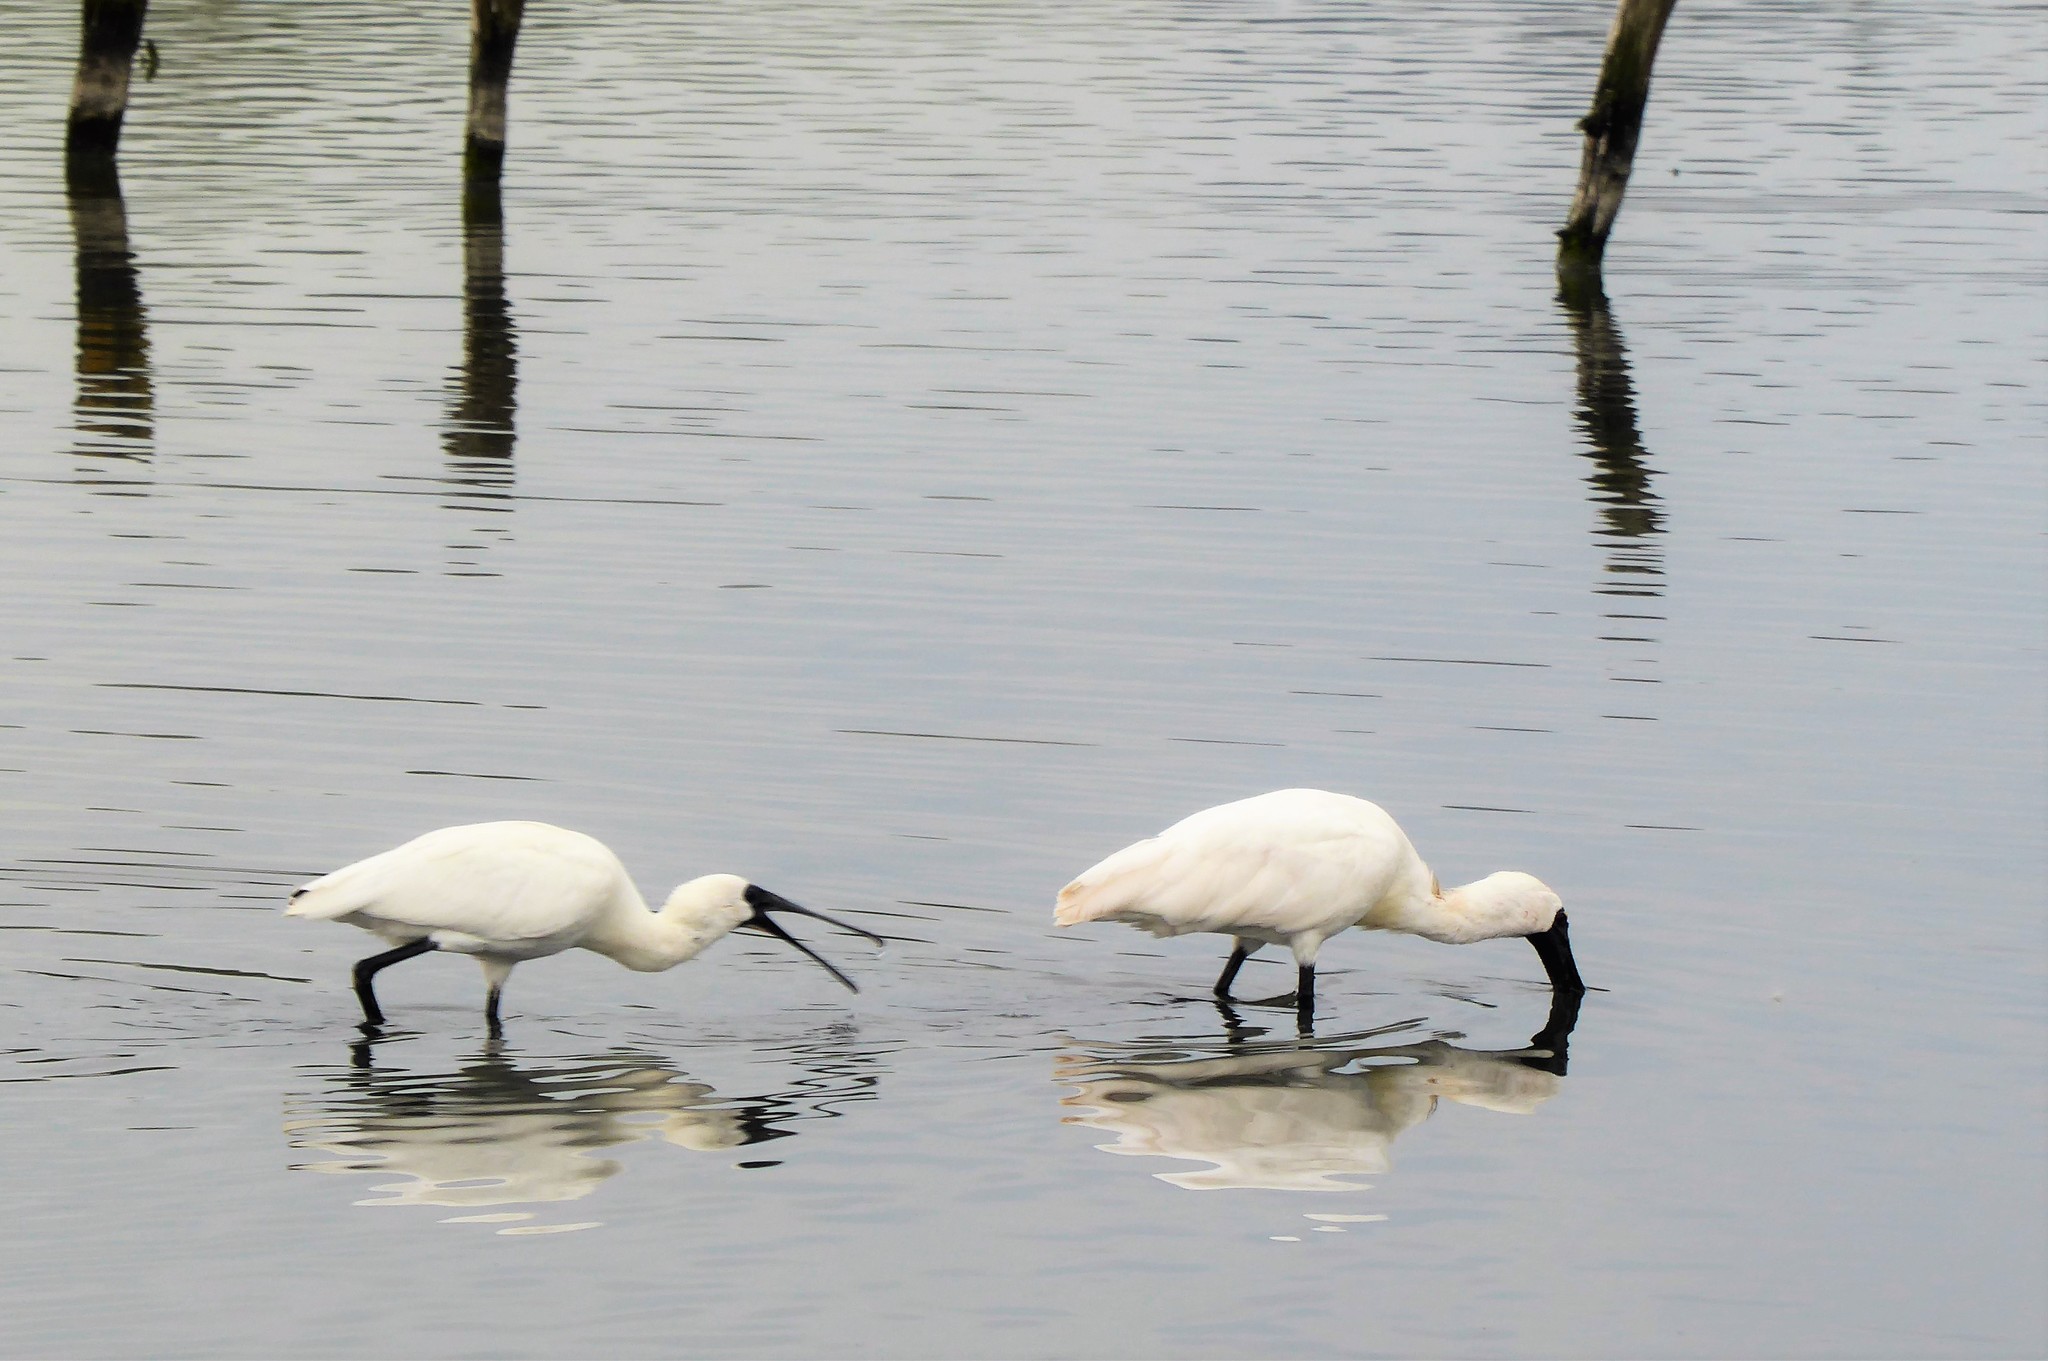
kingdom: Animalia
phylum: Chordata
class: Aves
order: Pelecaniformes
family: Threskiornithidae
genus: Platalea
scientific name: Platalea regia
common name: Royal spoonbill
